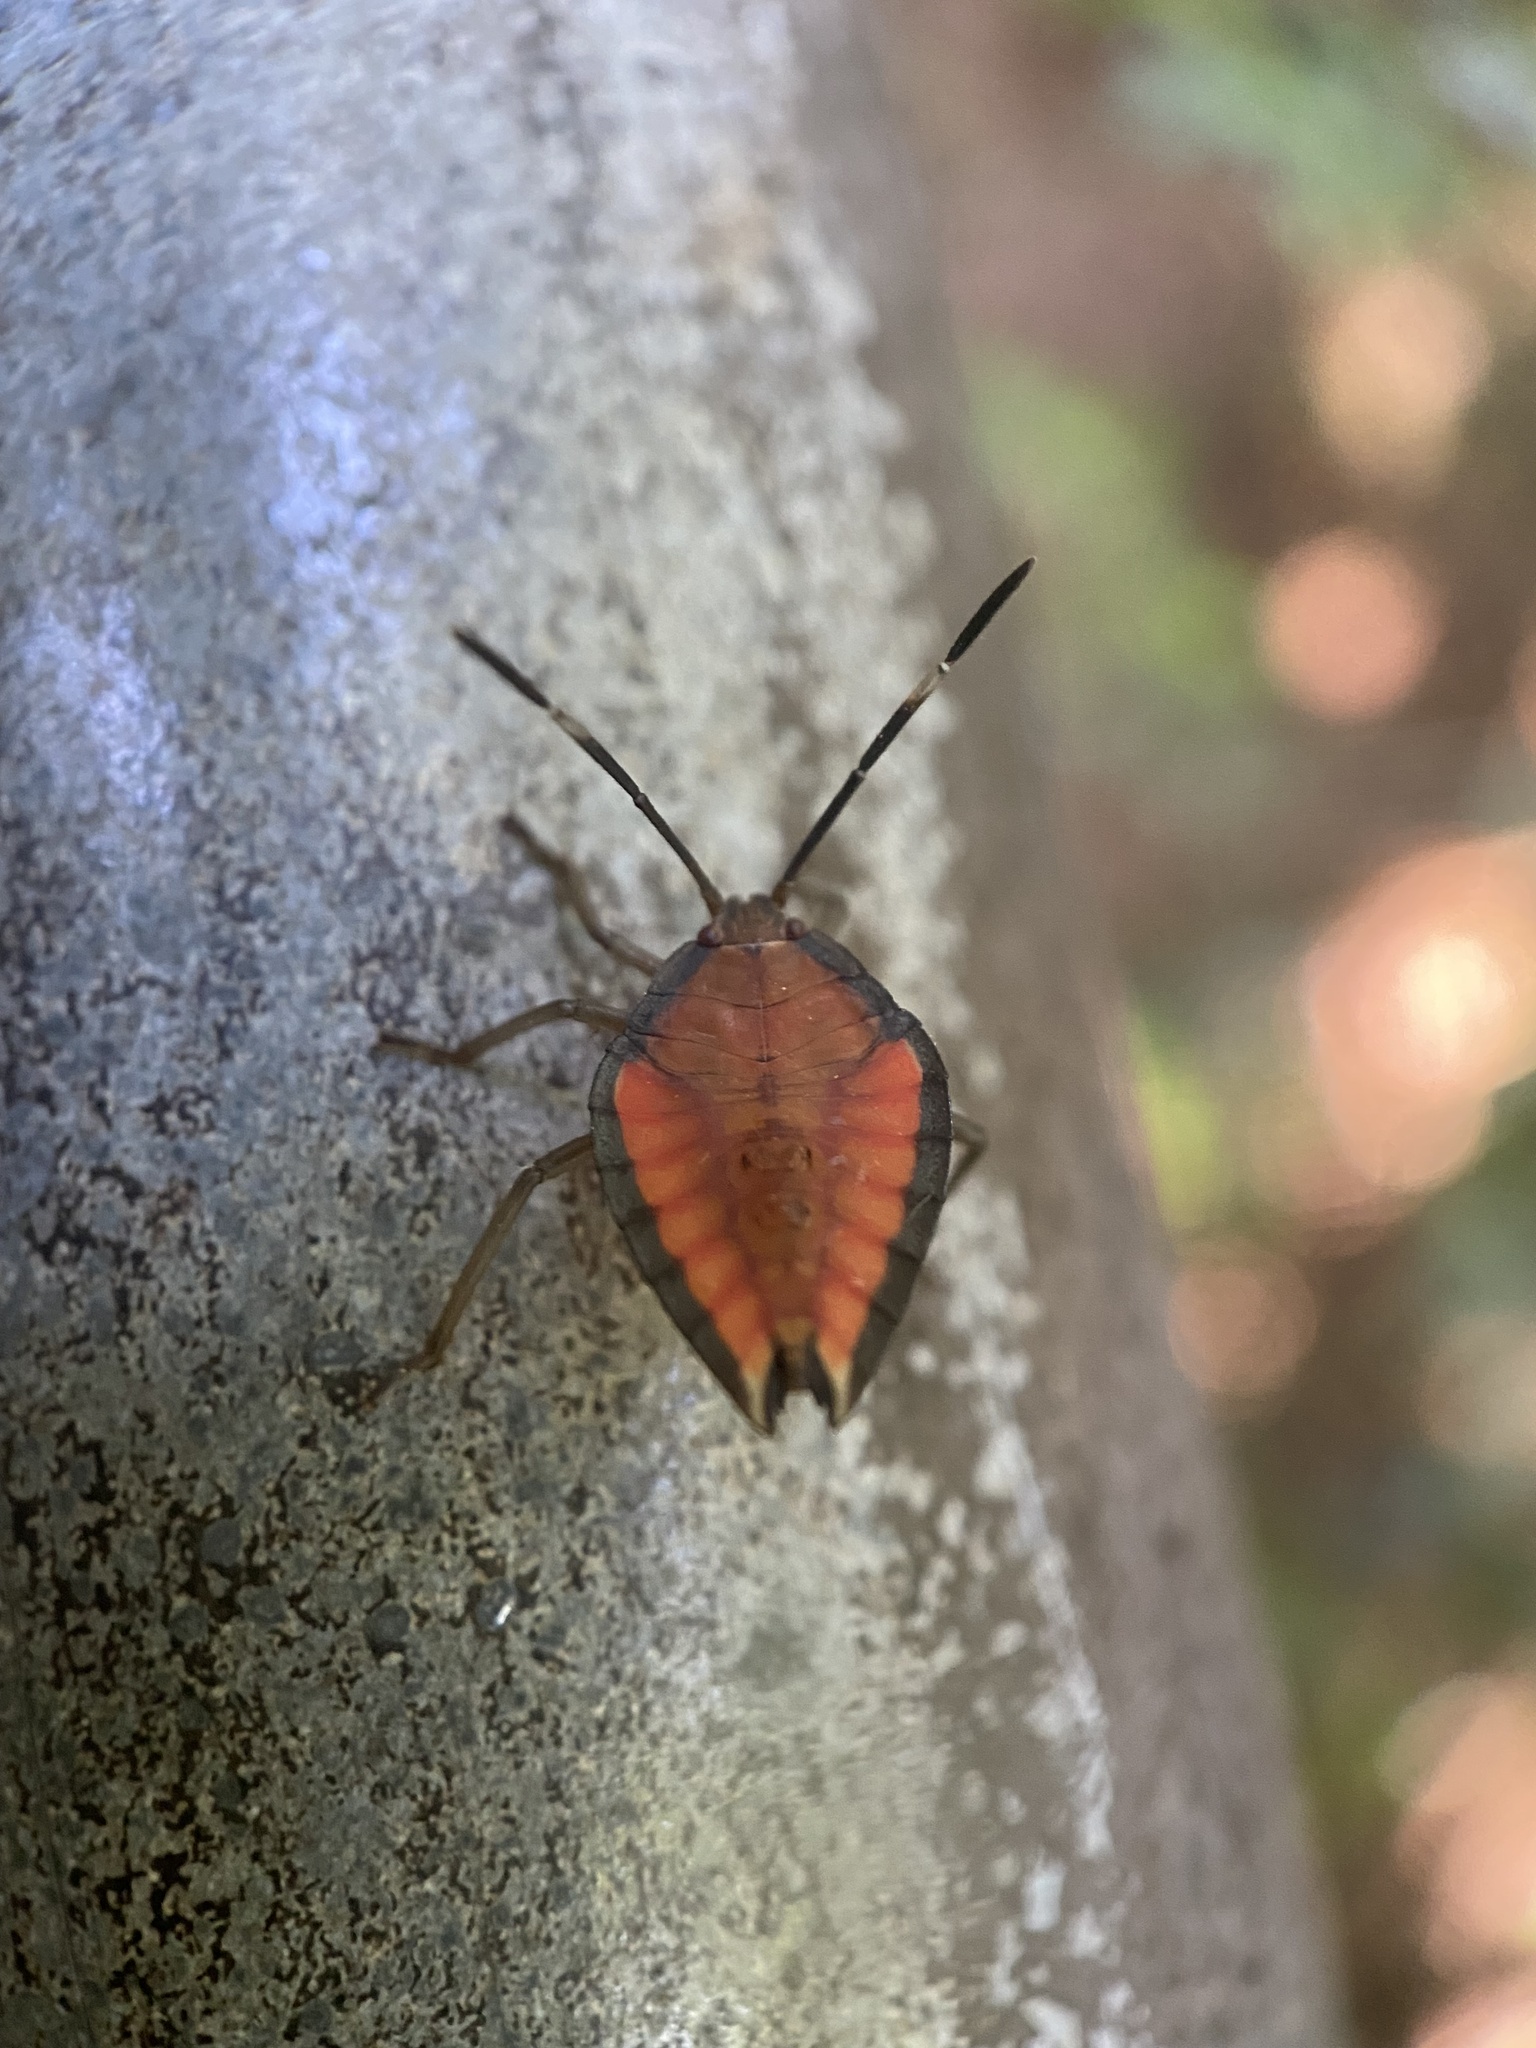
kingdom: Animalia
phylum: Arthropoda
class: Insecta
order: Hemiptera
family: Tessaratomidae
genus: Lyramorpha
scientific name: Lyramorpha rosea
